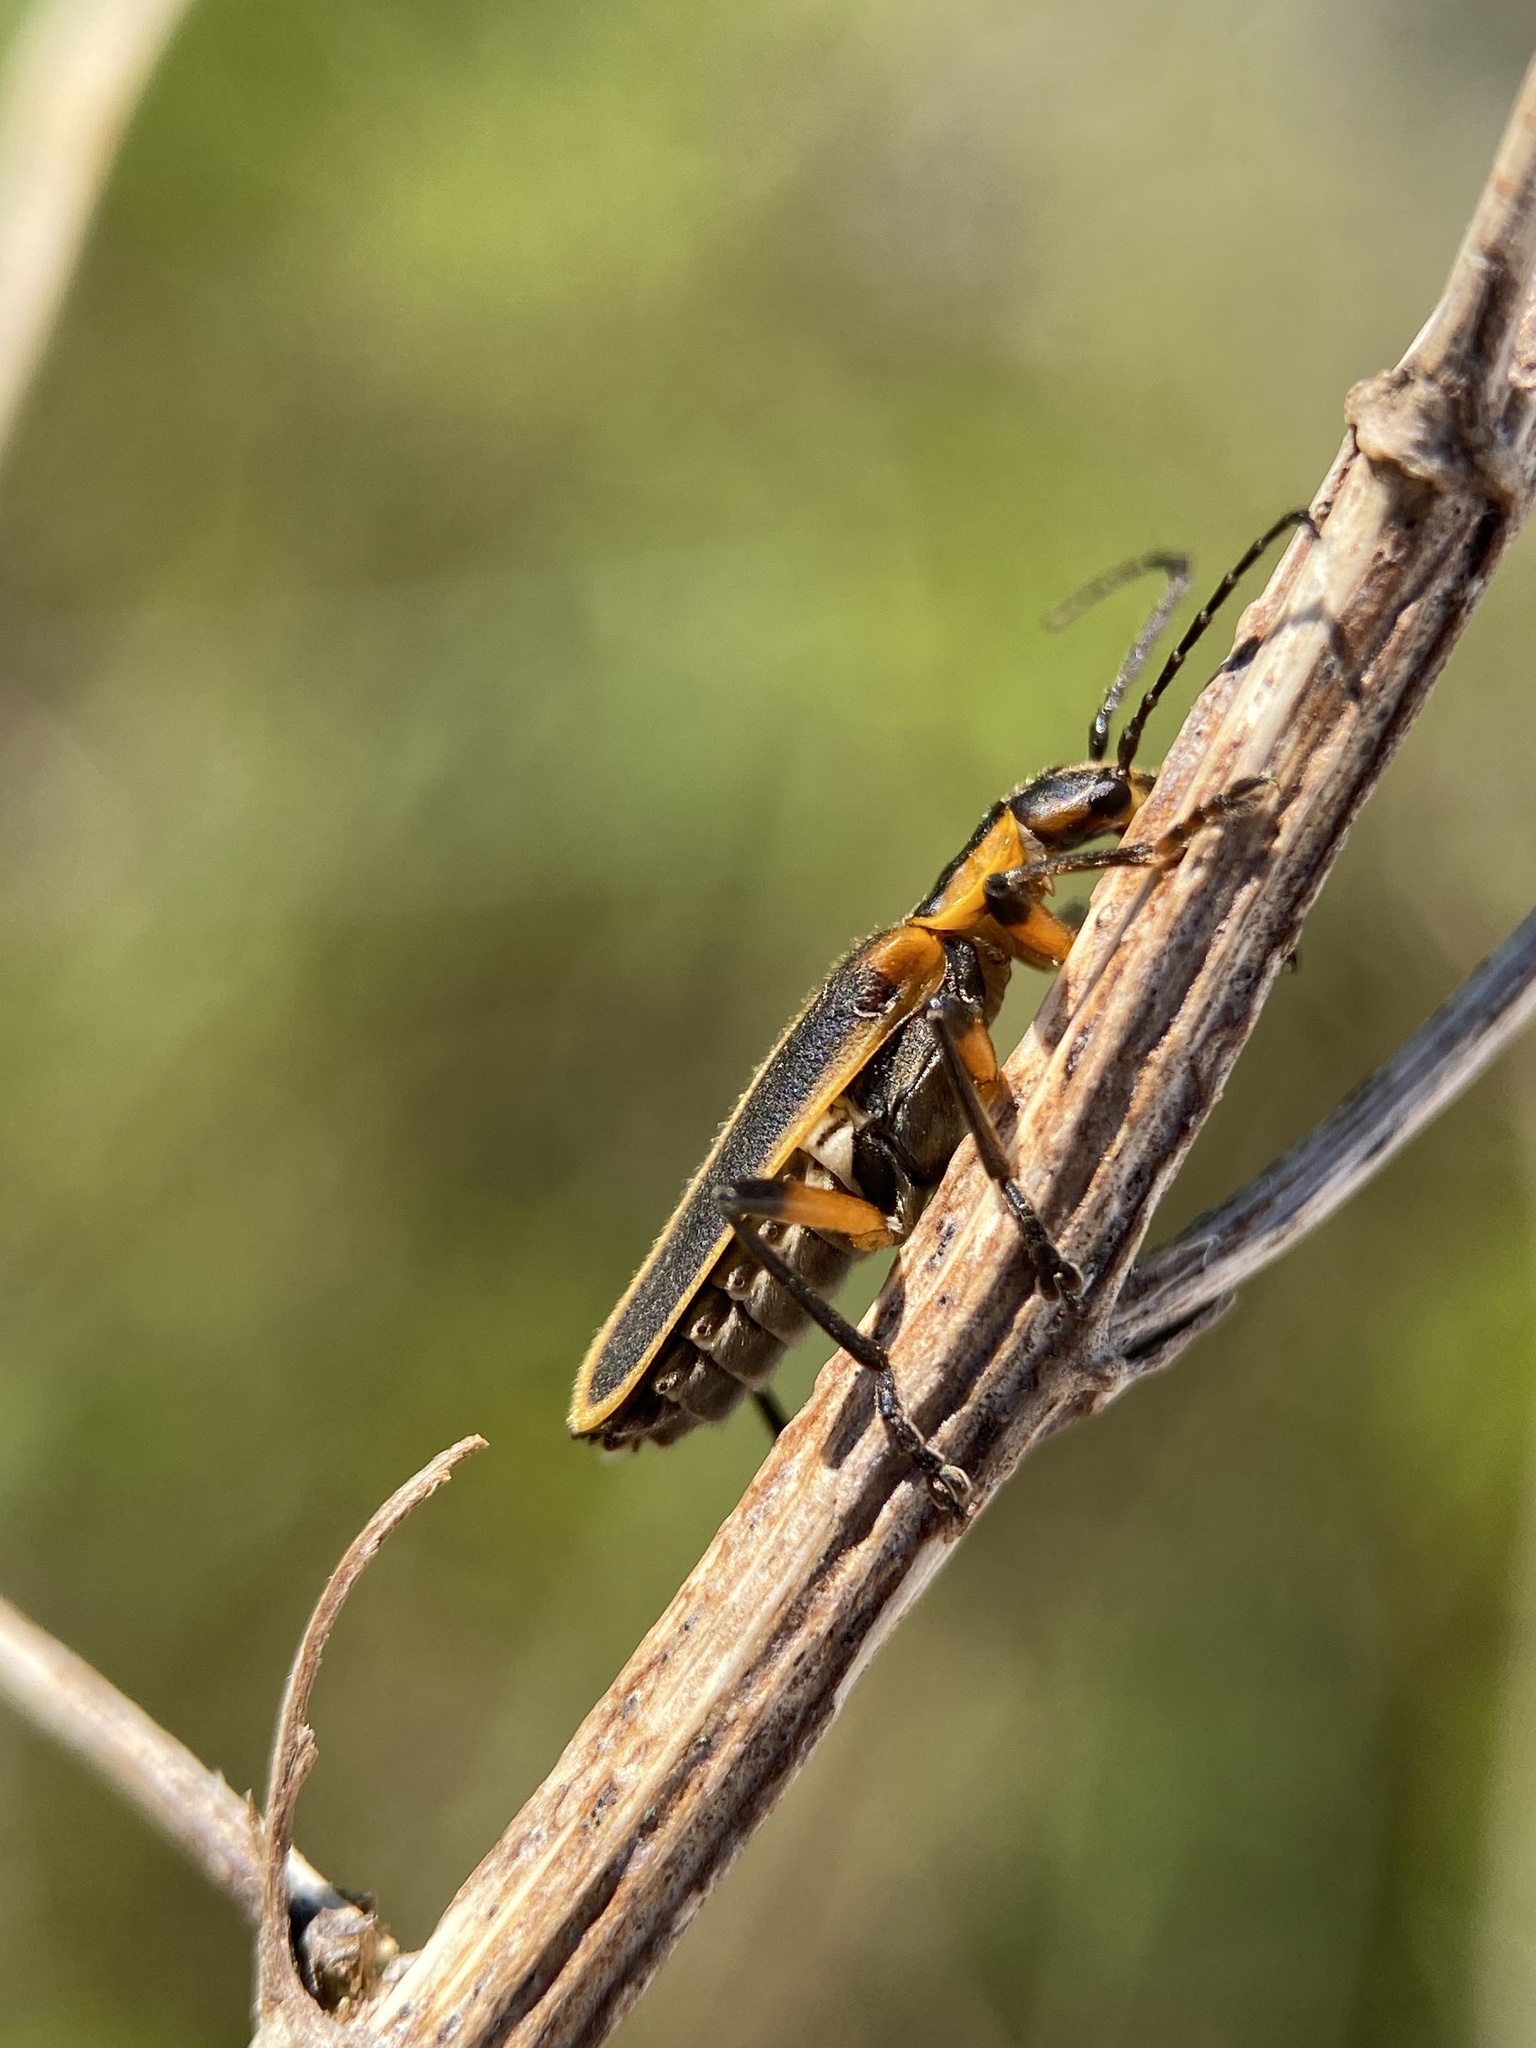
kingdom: Animalia
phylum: Arthropoda
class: Insecta
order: Coleoptera
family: Cantharidae
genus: Chauliognathus
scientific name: Chauliognathus marginatus
